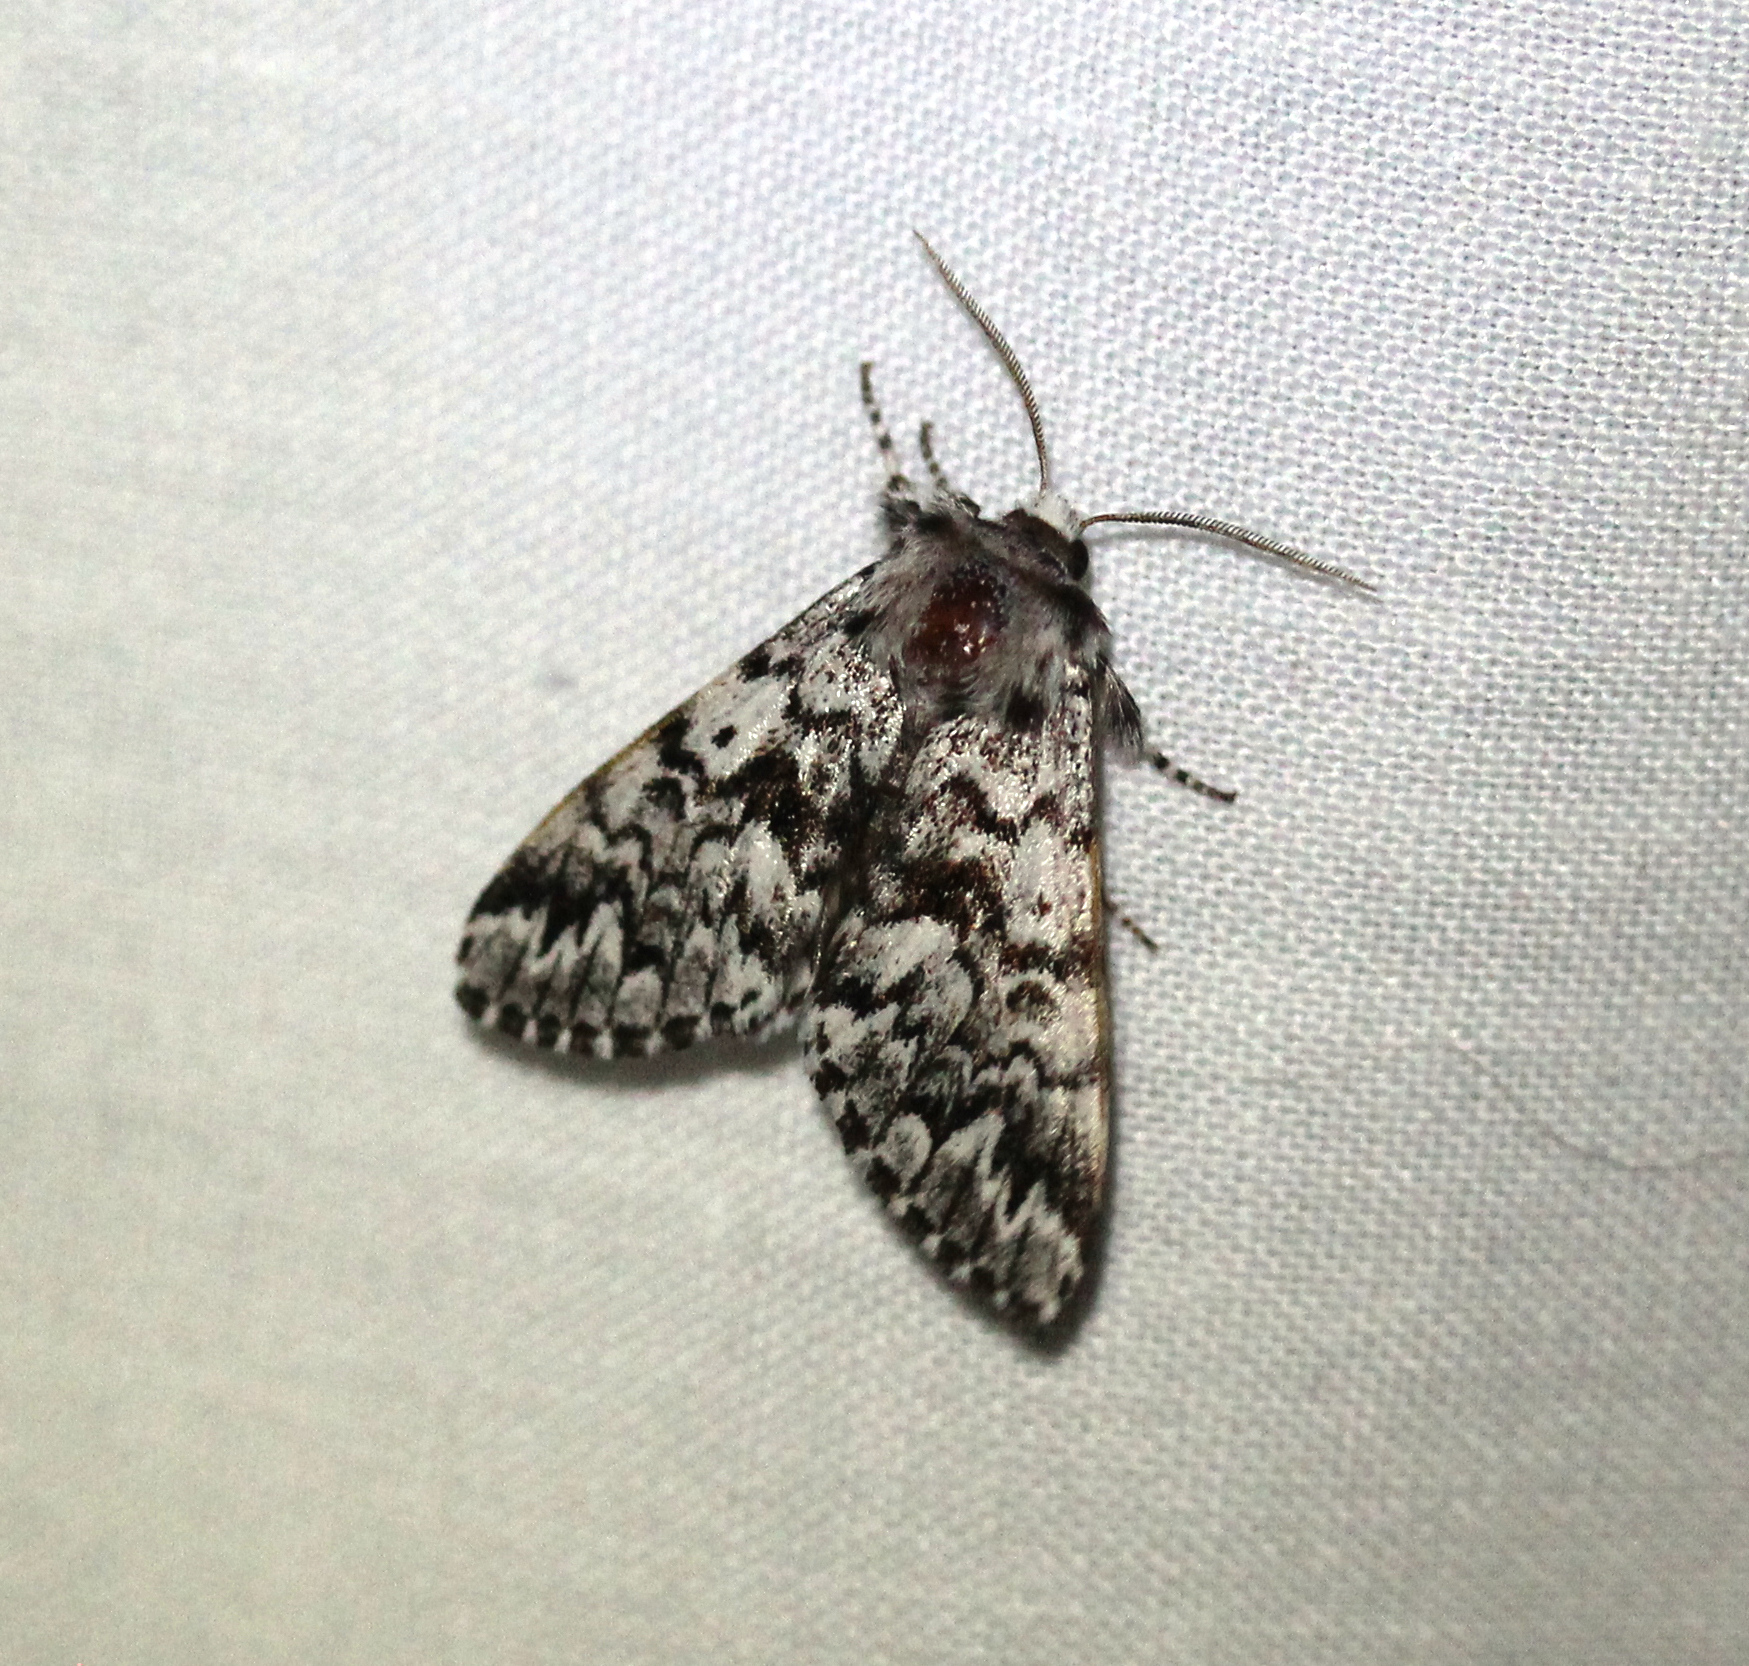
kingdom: Animalia
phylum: Arthropoda
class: Insecta
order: Lepidoptera
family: Noctuidae
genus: Panthea
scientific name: Panthea acronyctoides
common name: Black zigzag moth
